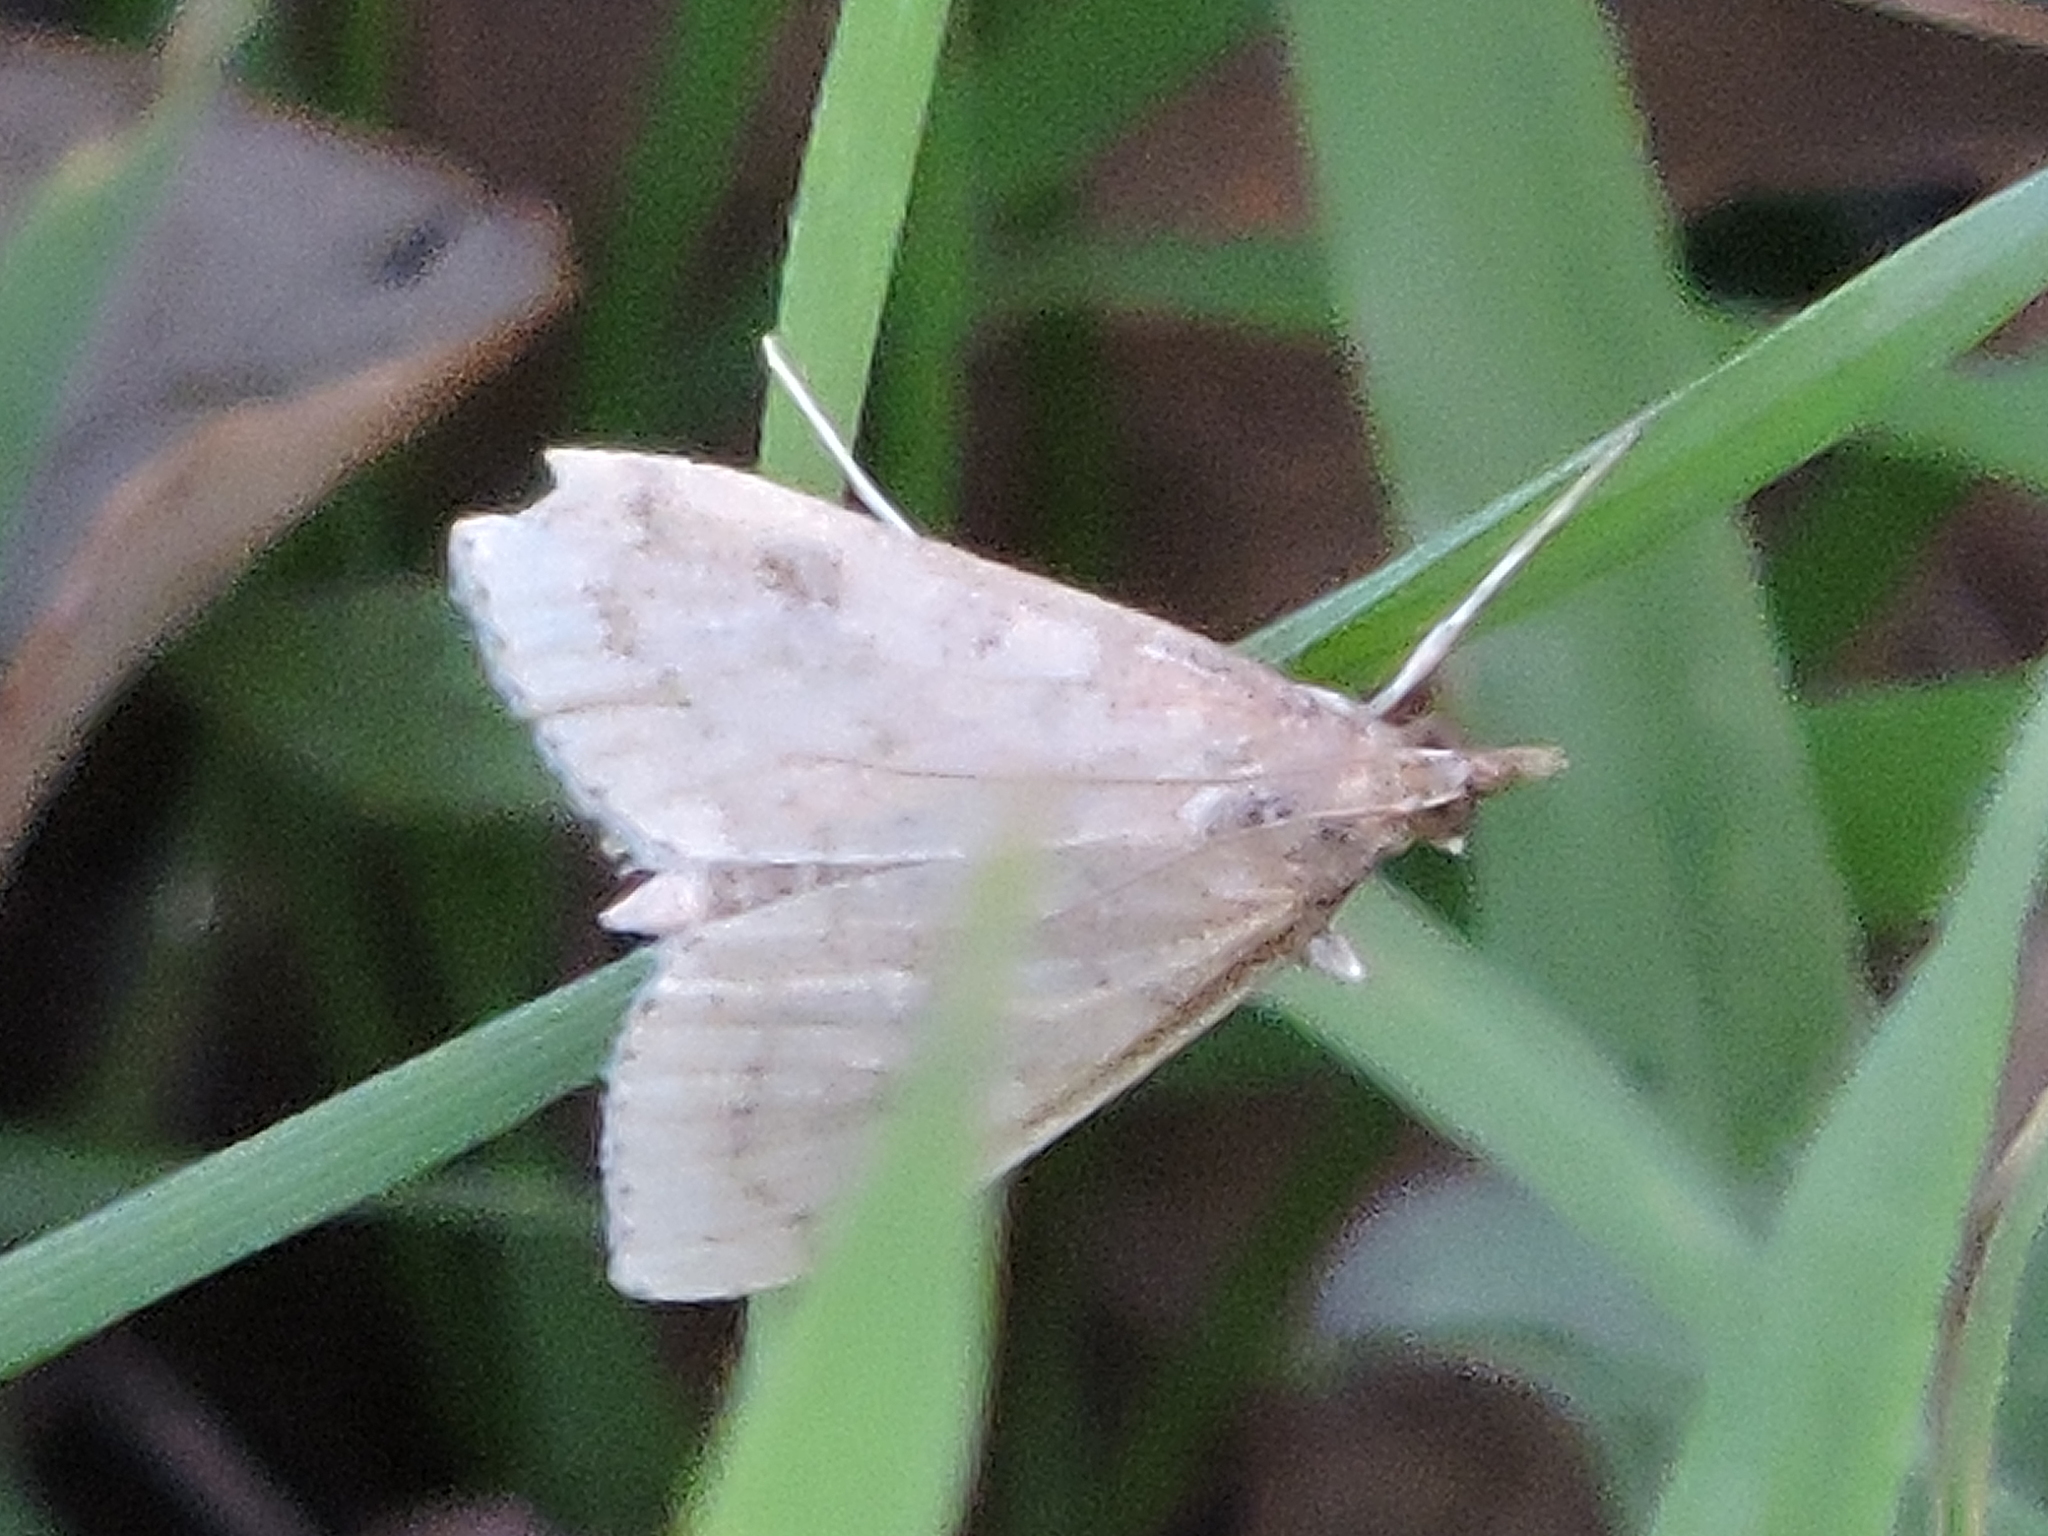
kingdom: Animalia
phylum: Arthropoda
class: Insecta
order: Lepidoptera
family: Crambidae
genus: Udea
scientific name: Udea rubigalis
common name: Celery leaftier moth
